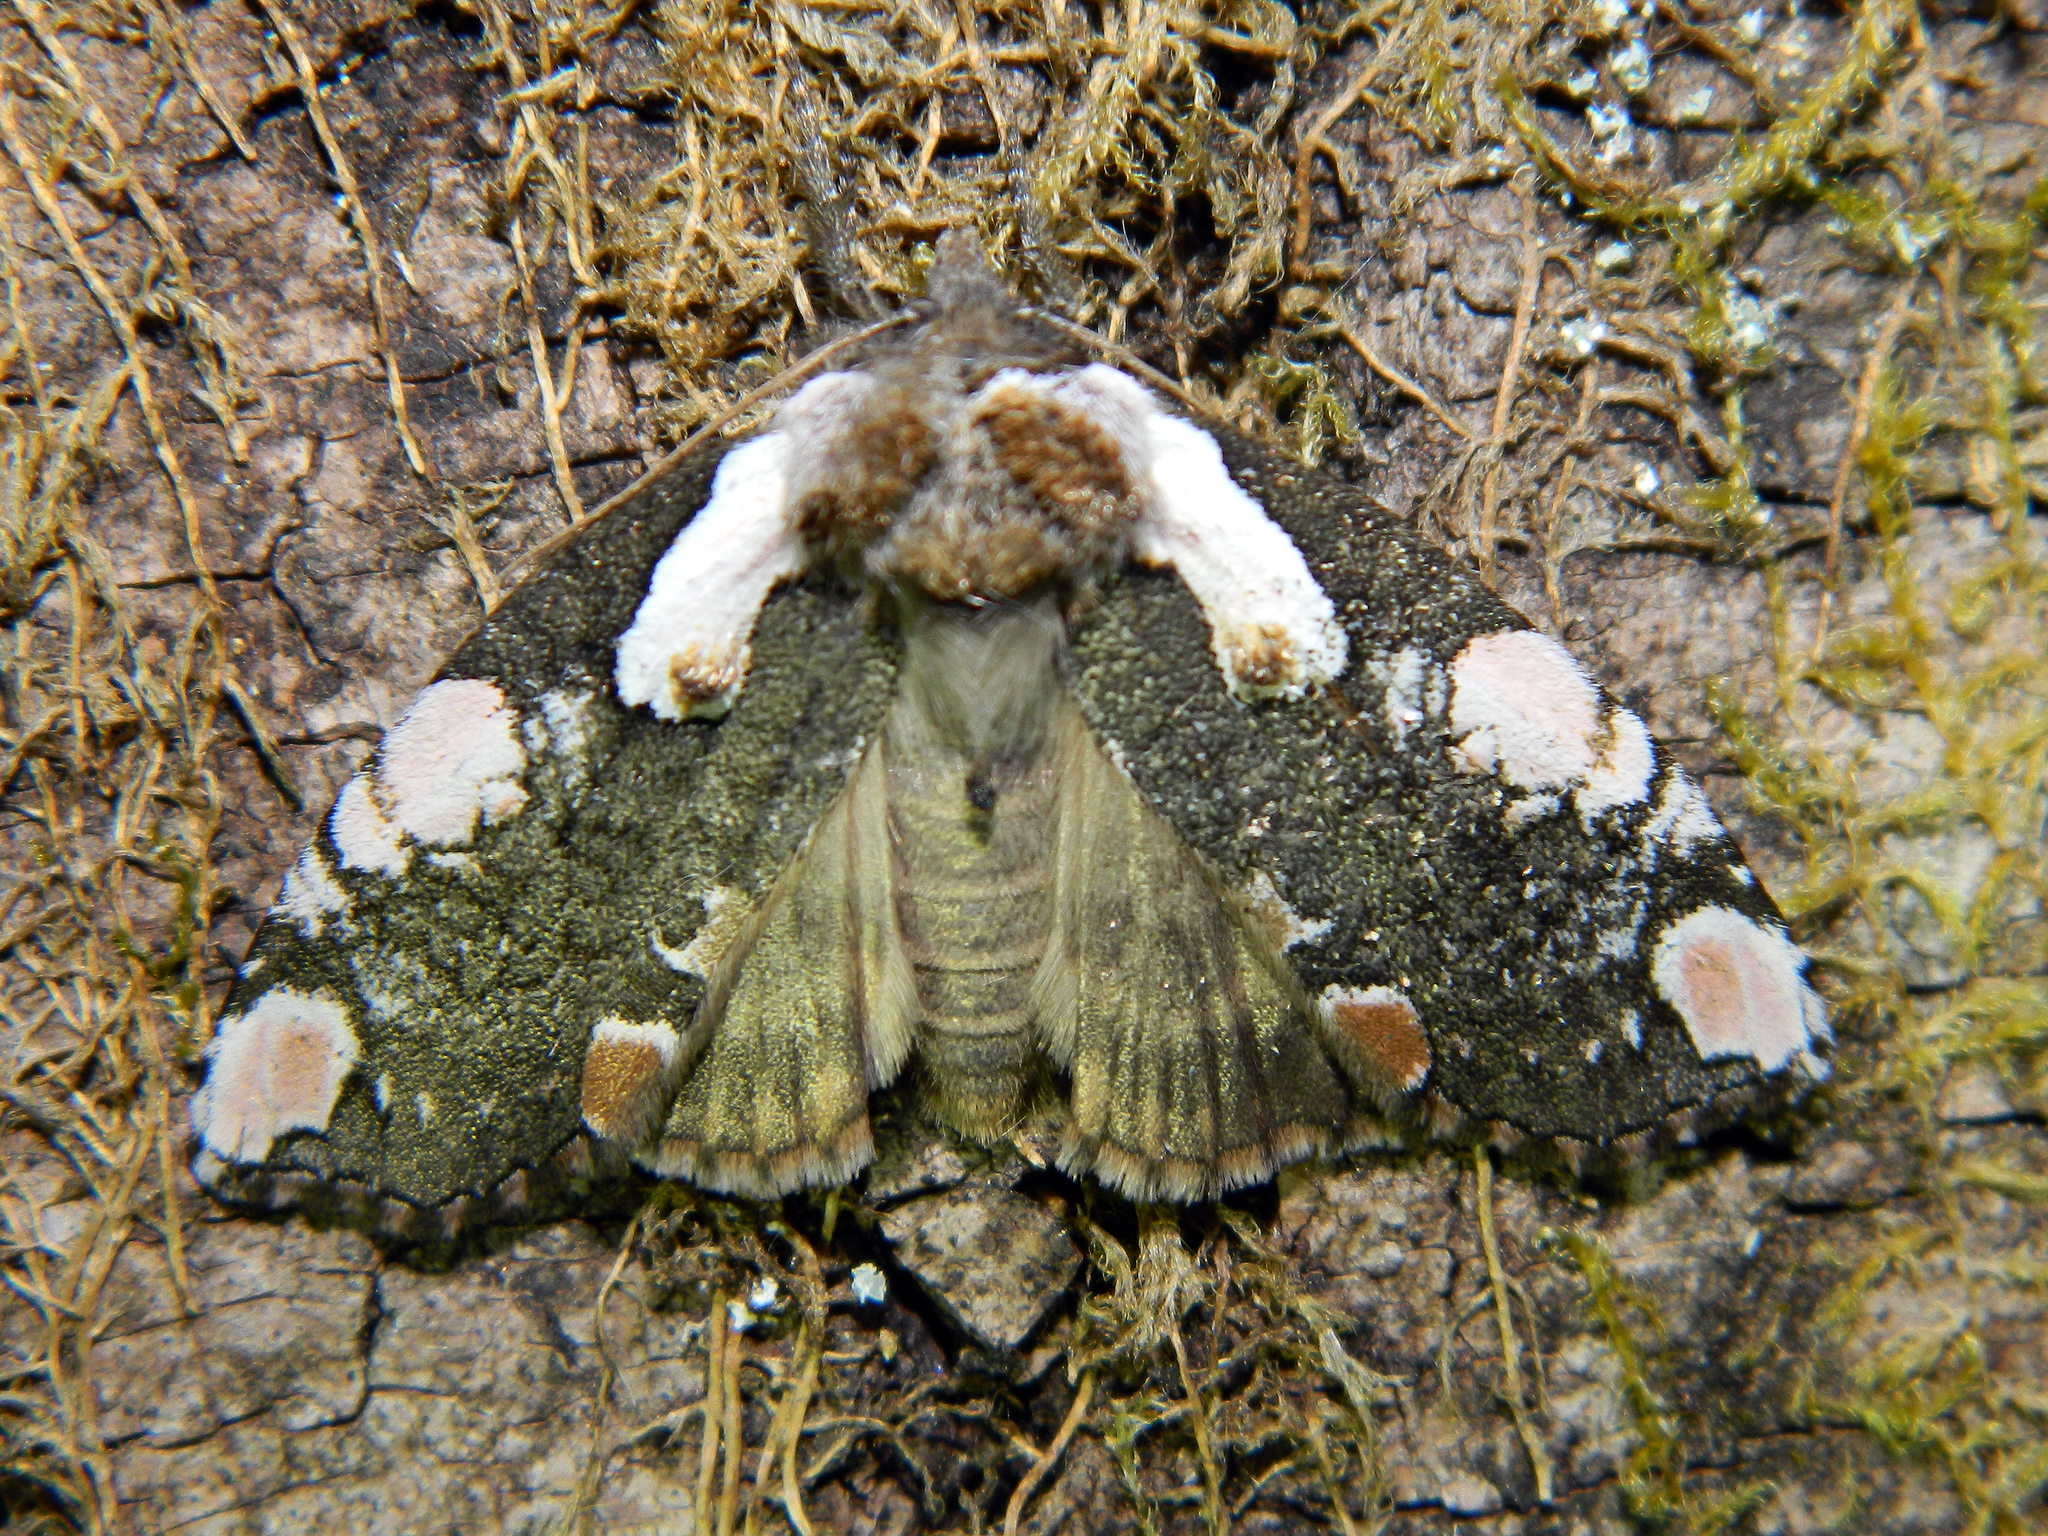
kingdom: Animalia
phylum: Arthropoda
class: Insecta
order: Lepidoptera
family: Drepanidae
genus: Euthyatira
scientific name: Euthyatira pudens
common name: Dogwood thyatirid moth
